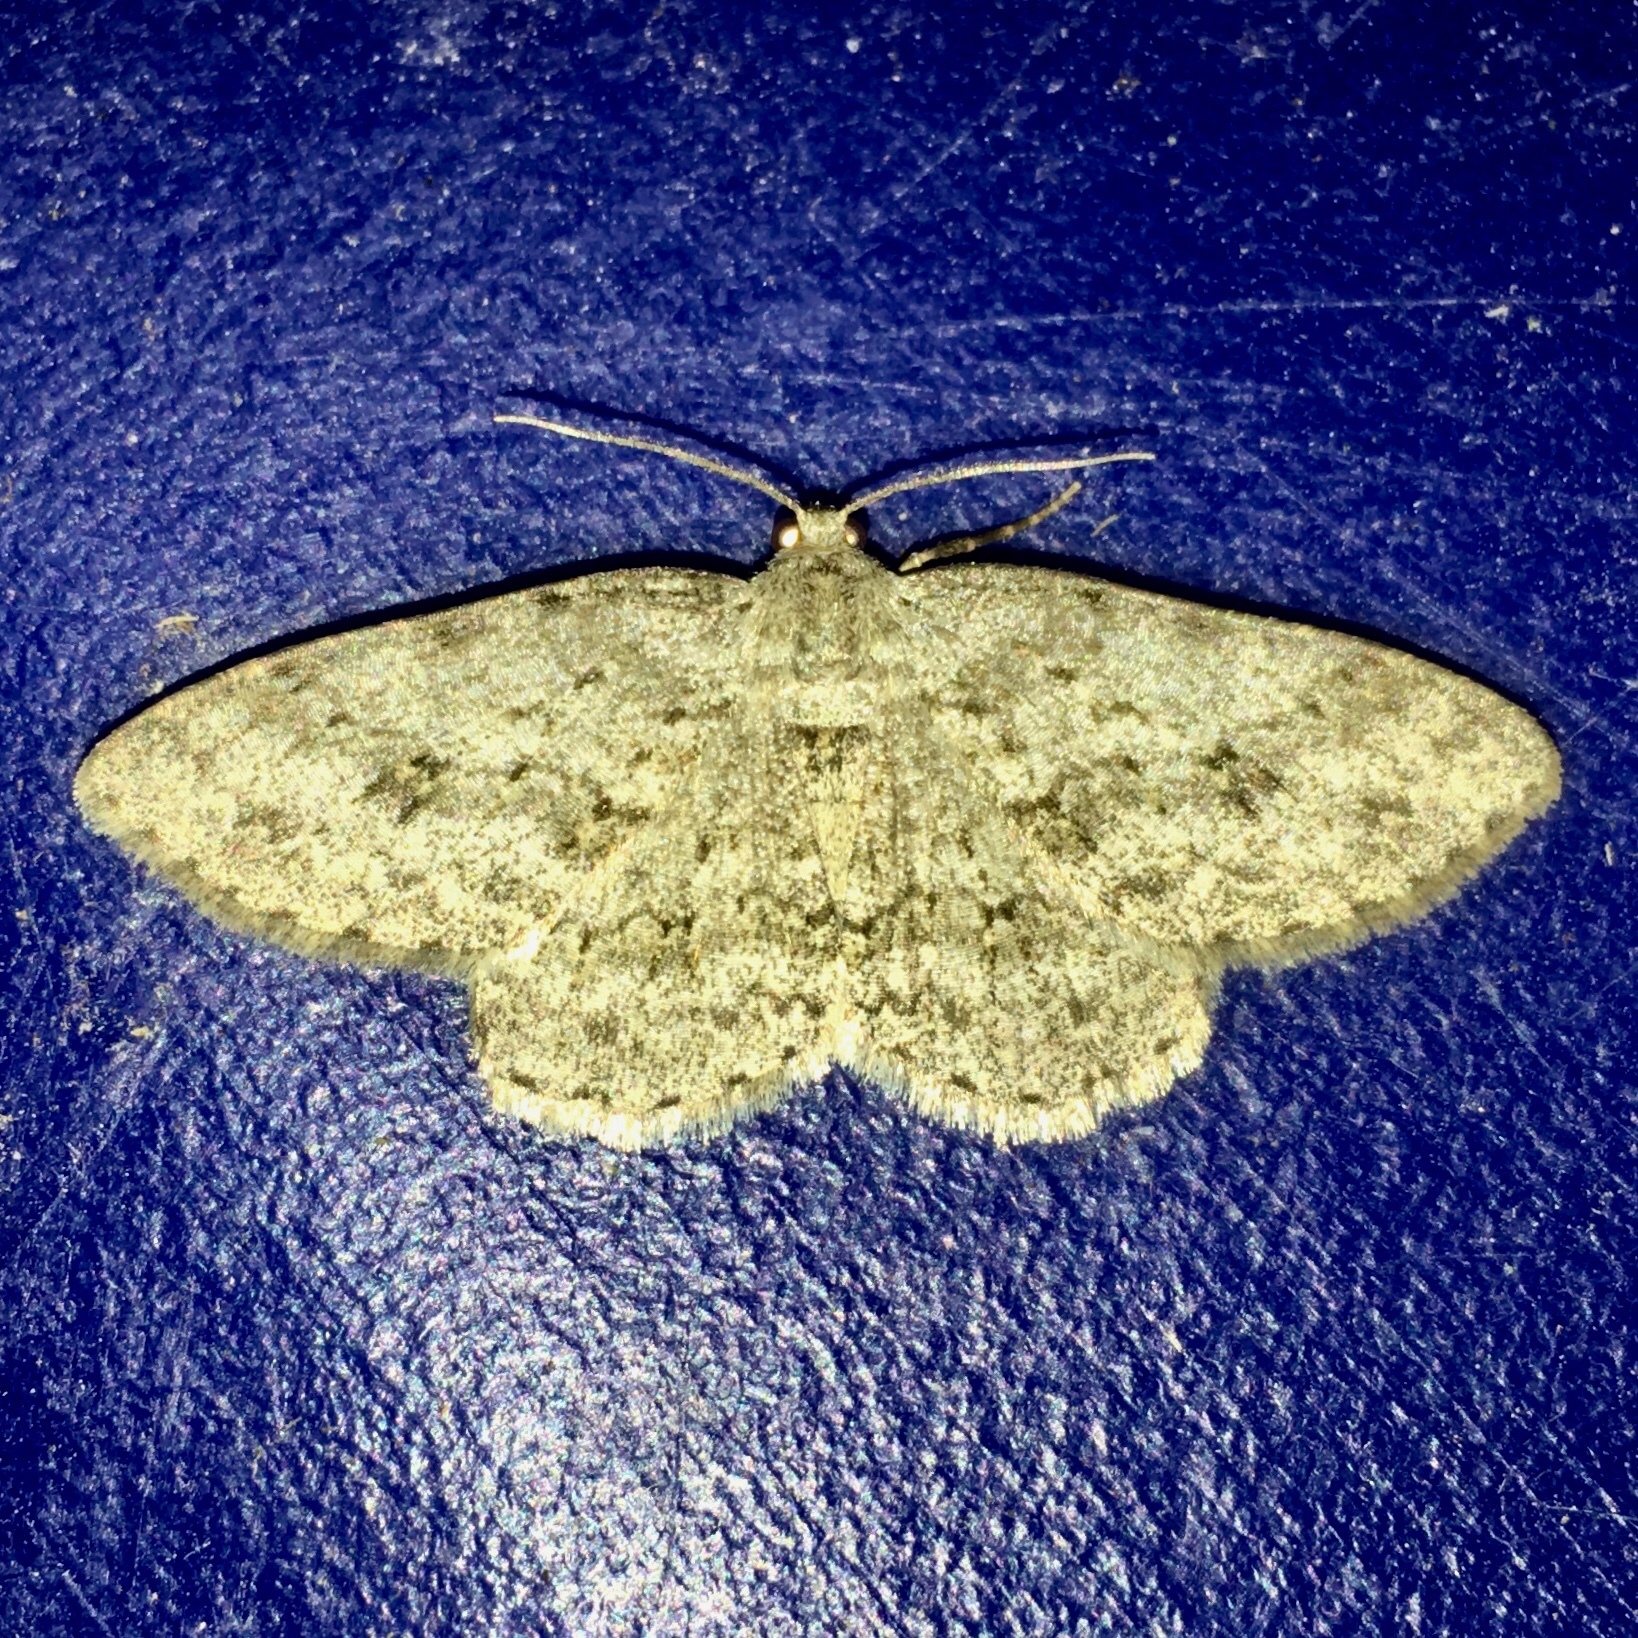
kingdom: Animalia
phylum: Arthropoda
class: Insecta
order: Lepidoptera
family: Geometridae
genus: Ectropis
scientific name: Ectropis crepuscularia
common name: Engrailed
